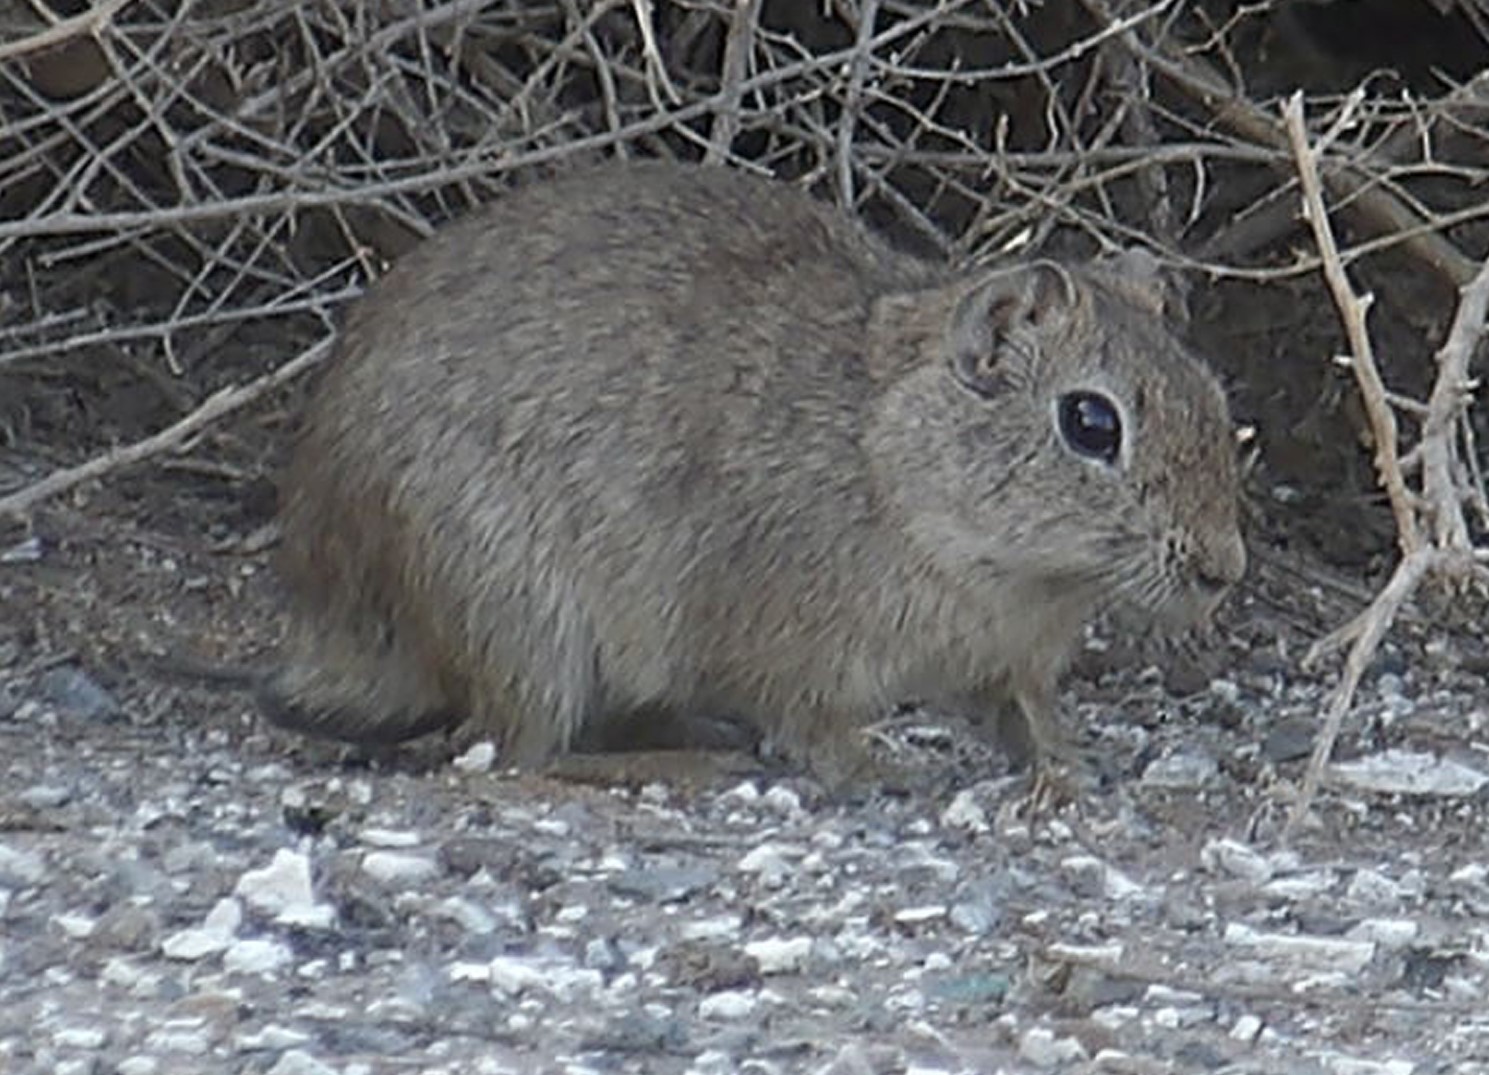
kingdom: Animalia
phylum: Chordata
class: Mammalia
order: Rodentia
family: Caviidae
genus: Microcavia
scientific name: Microcavia australis
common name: Southern mountain cavy
